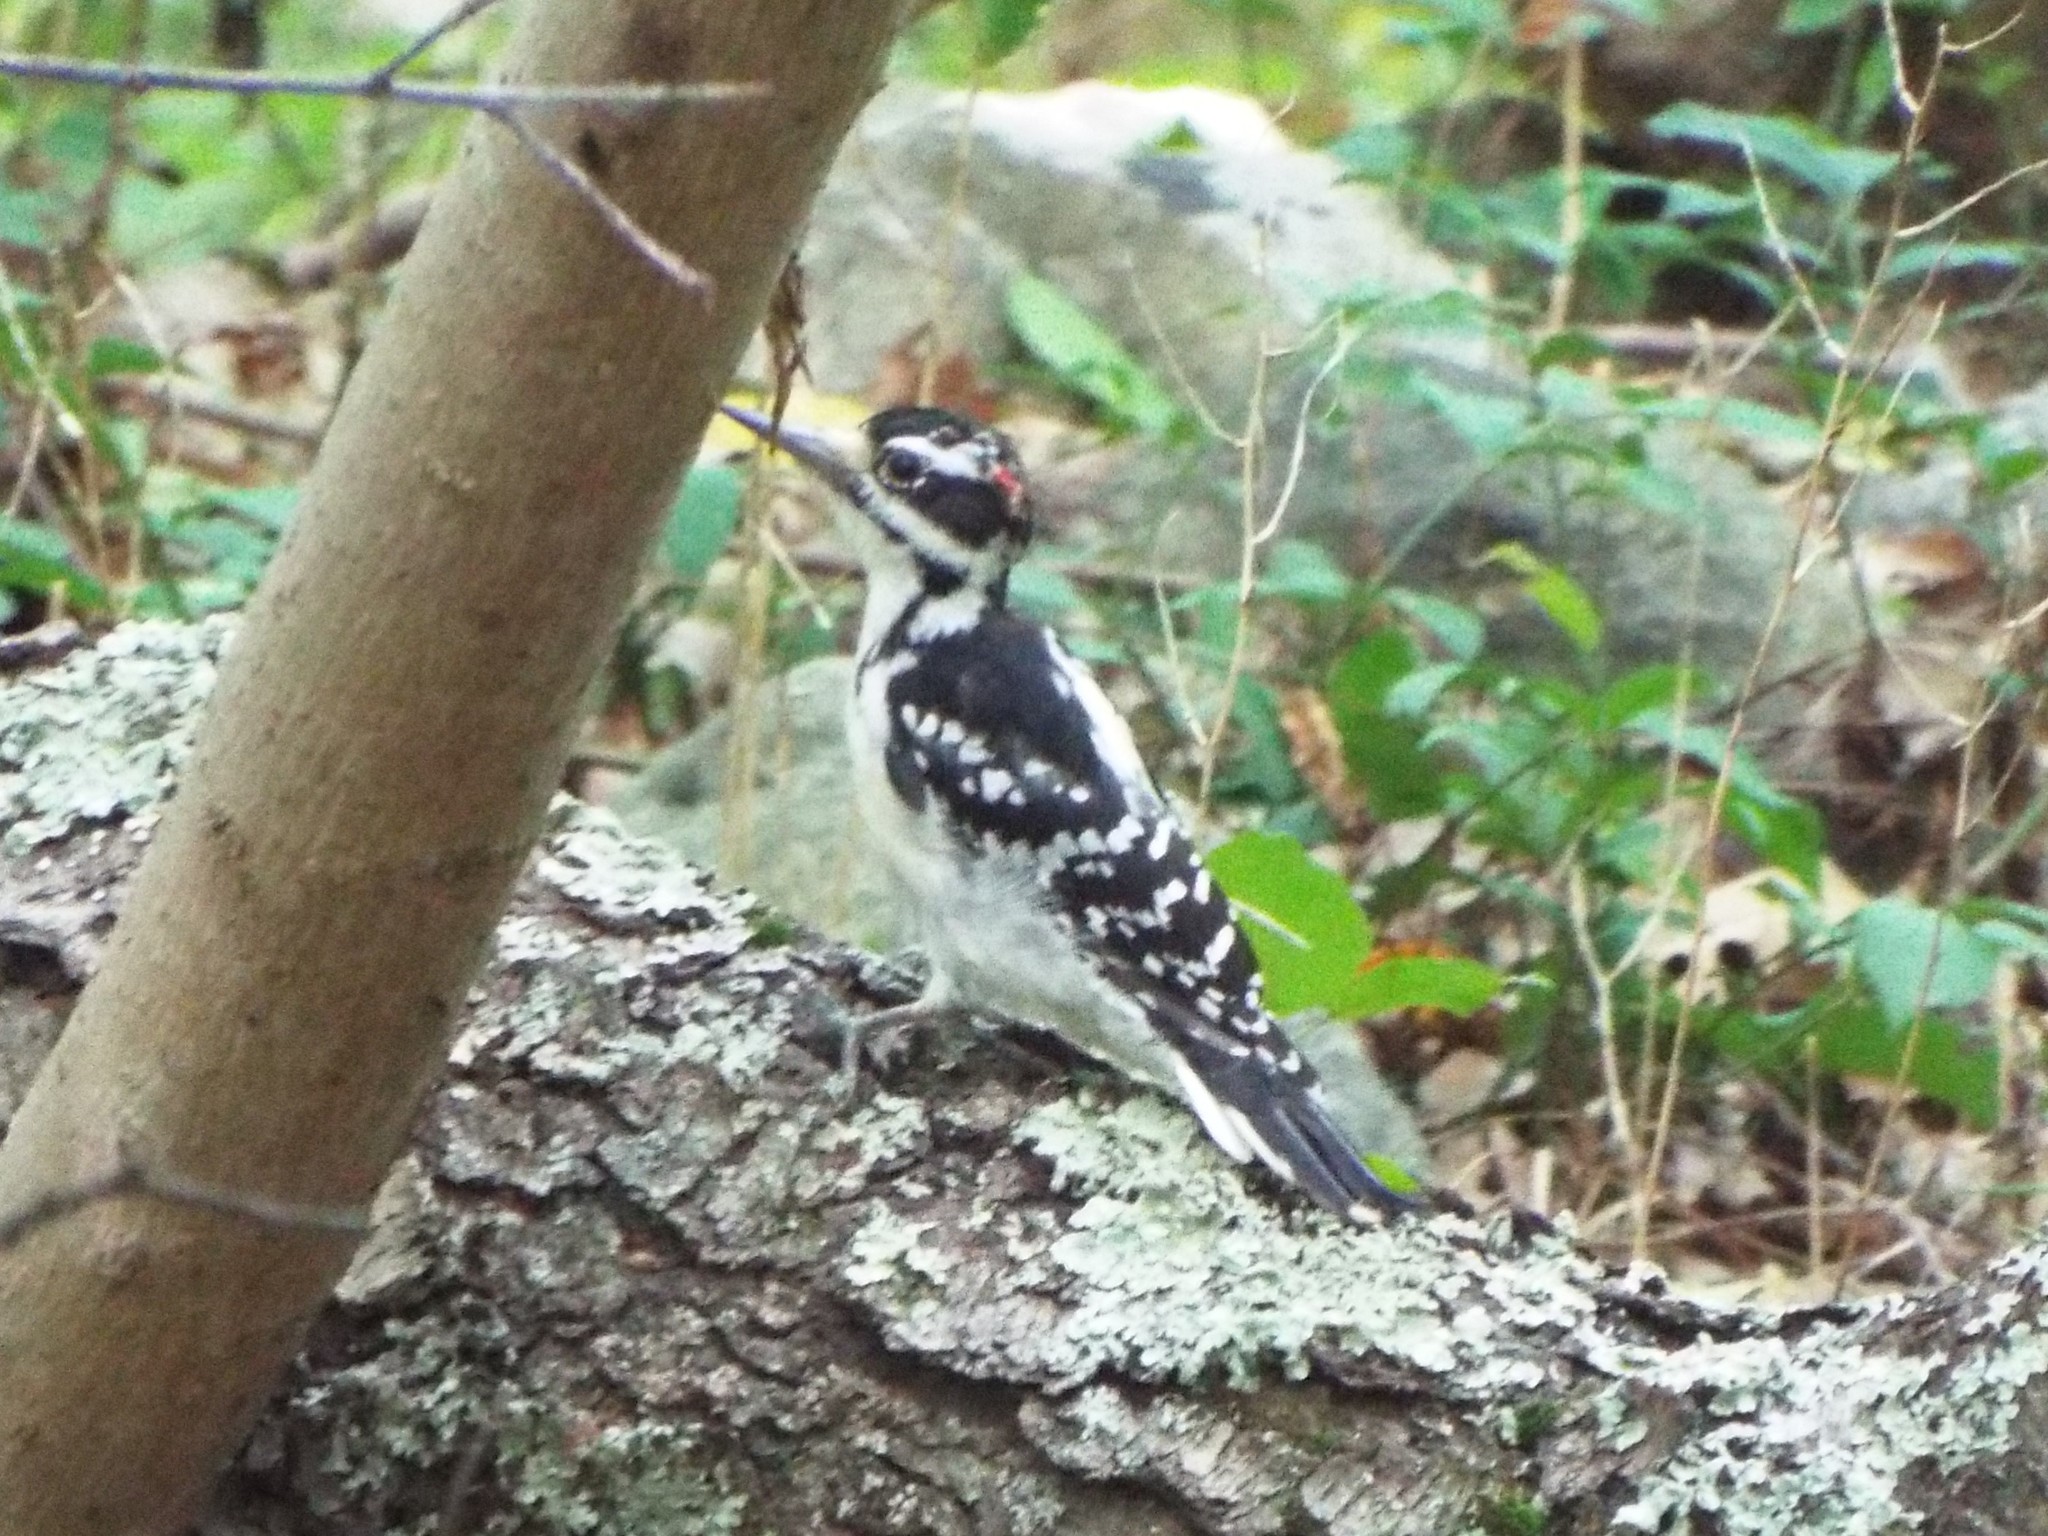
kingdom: Animalia
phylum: Chordata
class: Aves
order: Piciformes
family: Picidae
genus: Leuconotopicus
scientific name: Leuconotopicus villosus
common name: Hairy woodpecker
